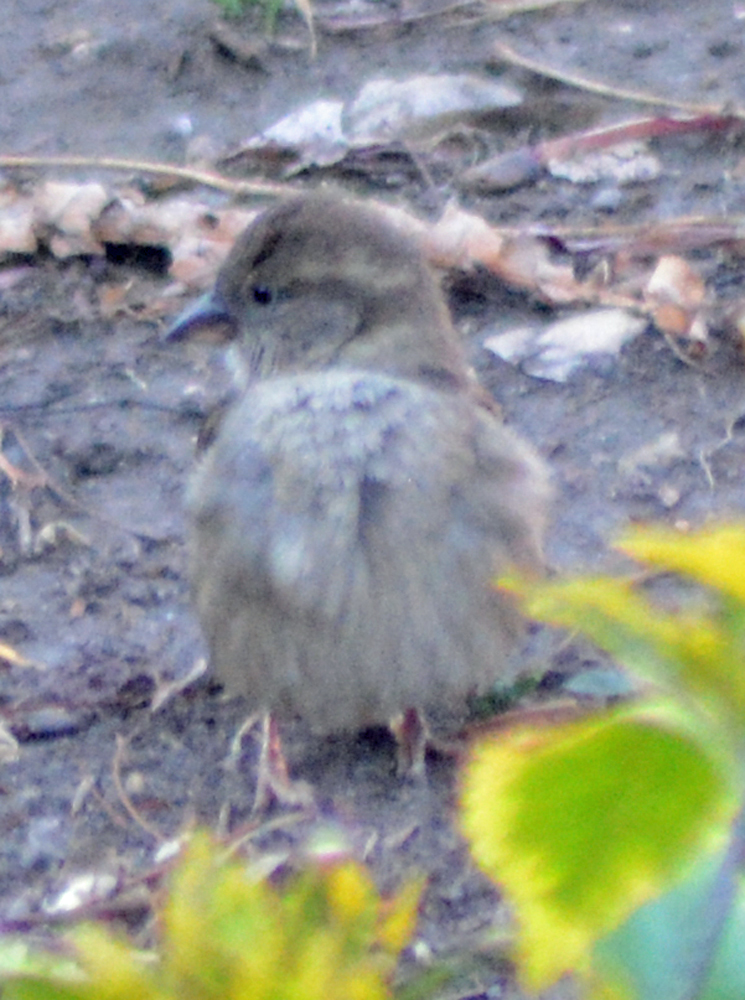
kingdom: Animalia
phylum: Chordata
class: Aves
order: Passeriformes
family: Passeridae
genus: Passer
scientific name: Passer domesticus
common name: House sparrow
